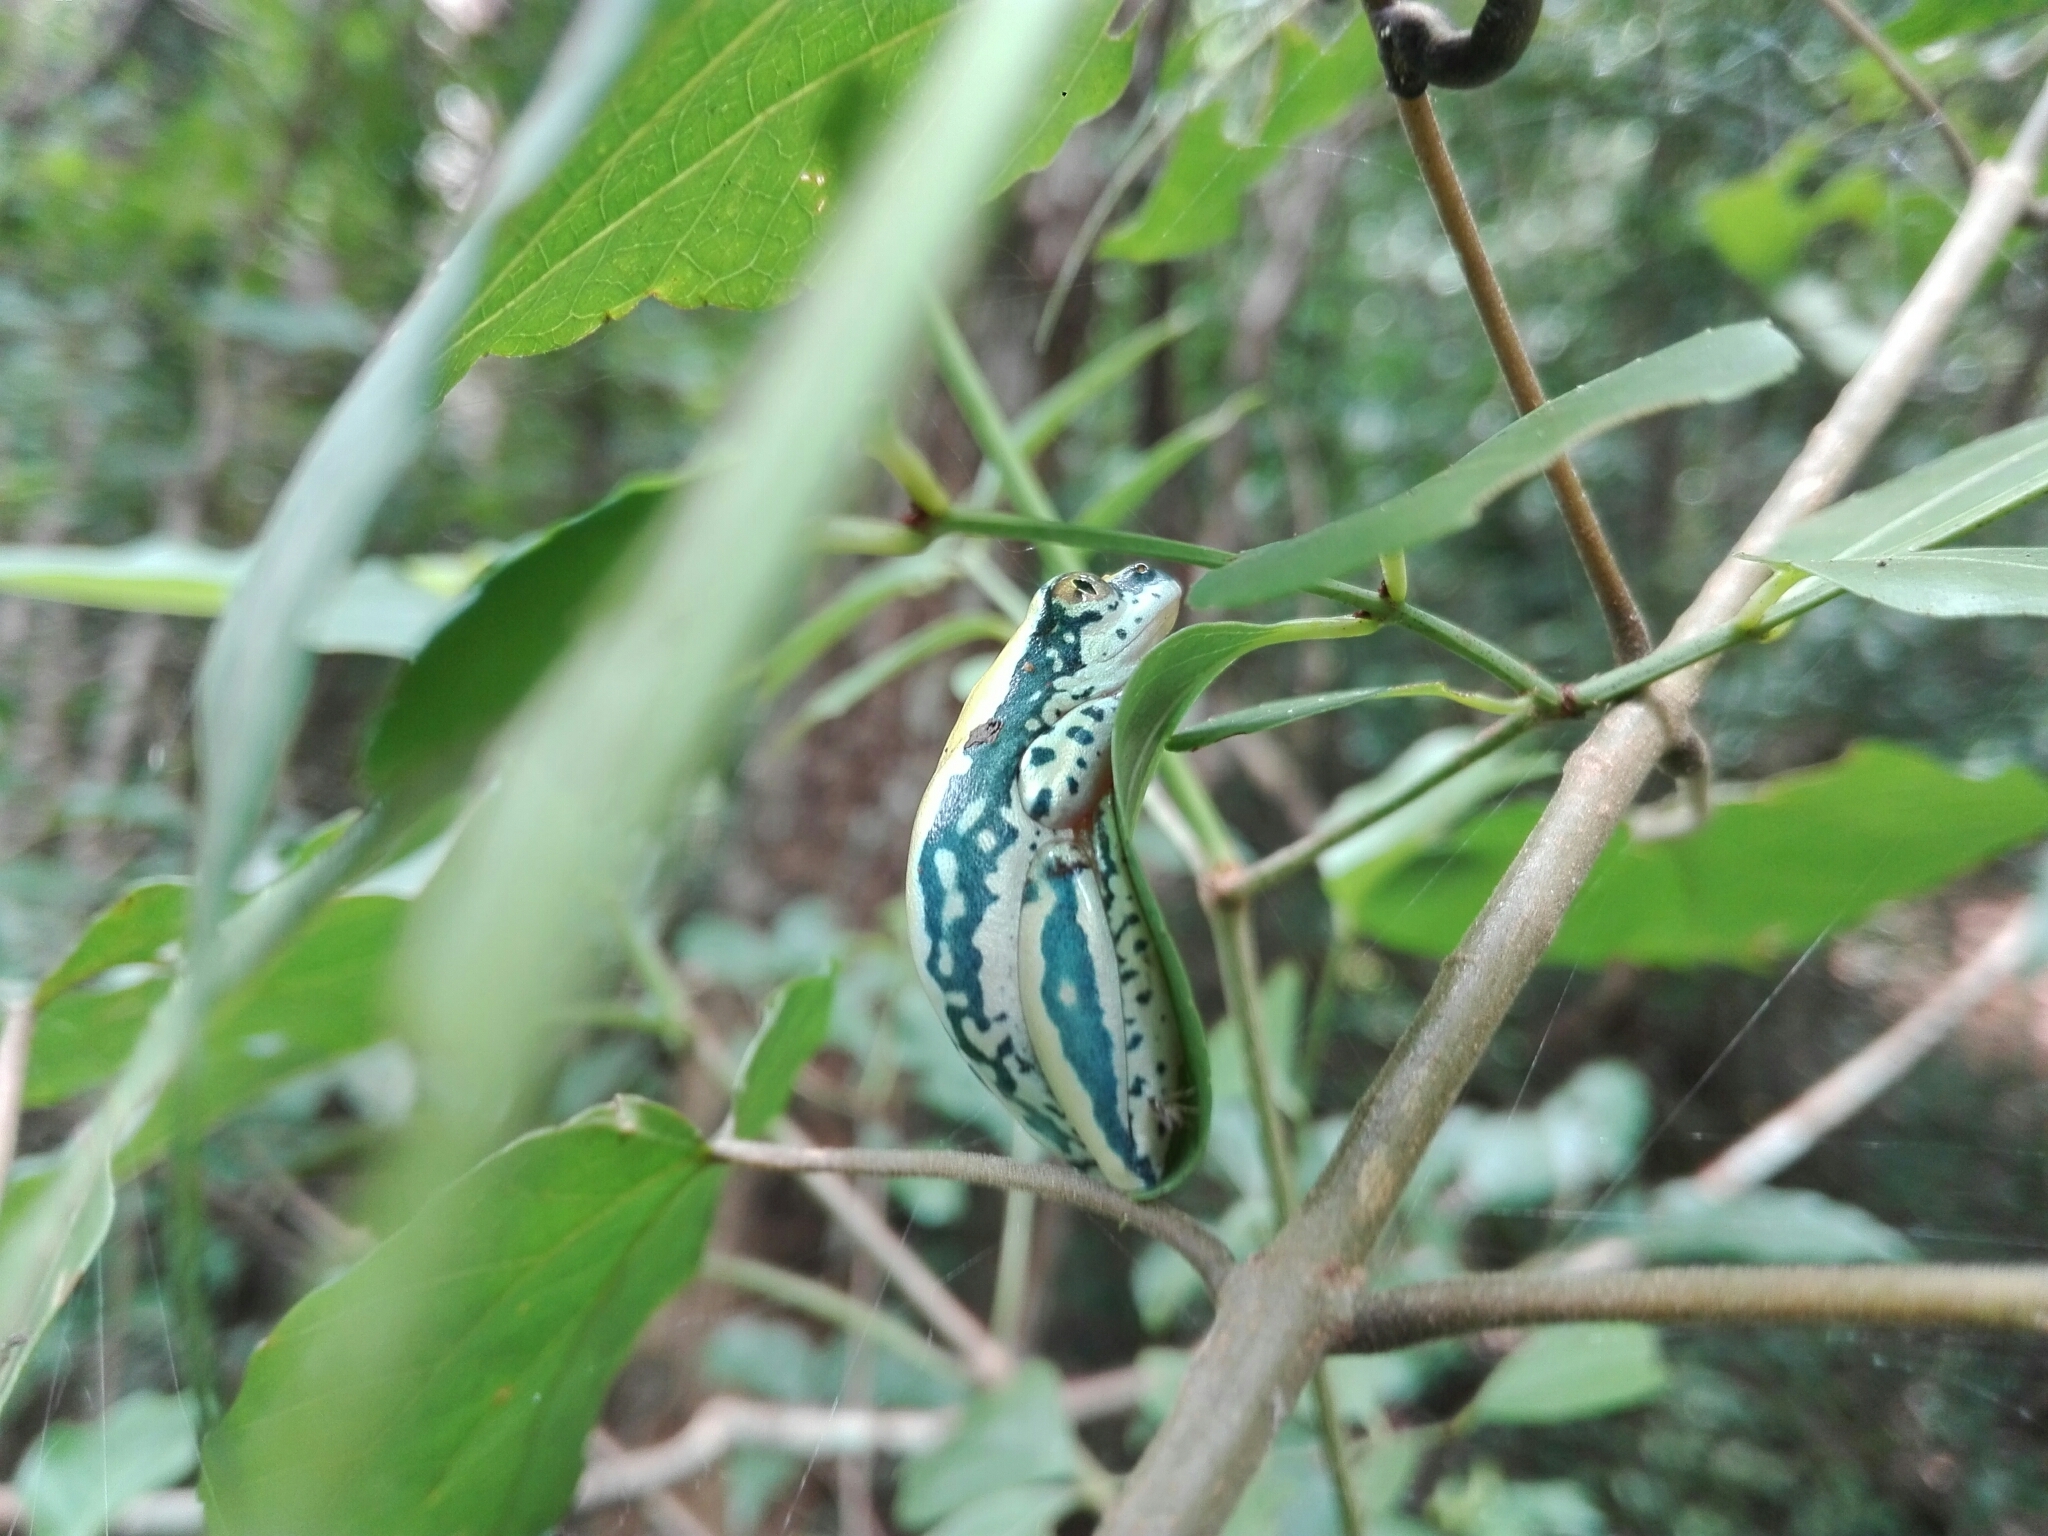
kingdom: Animalia
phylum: Chordata
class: Amphibia
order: Anura
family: Hyperoliidae
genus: Heterixalus
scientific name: Heterixalus tricolor
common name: Three-color reed frog
